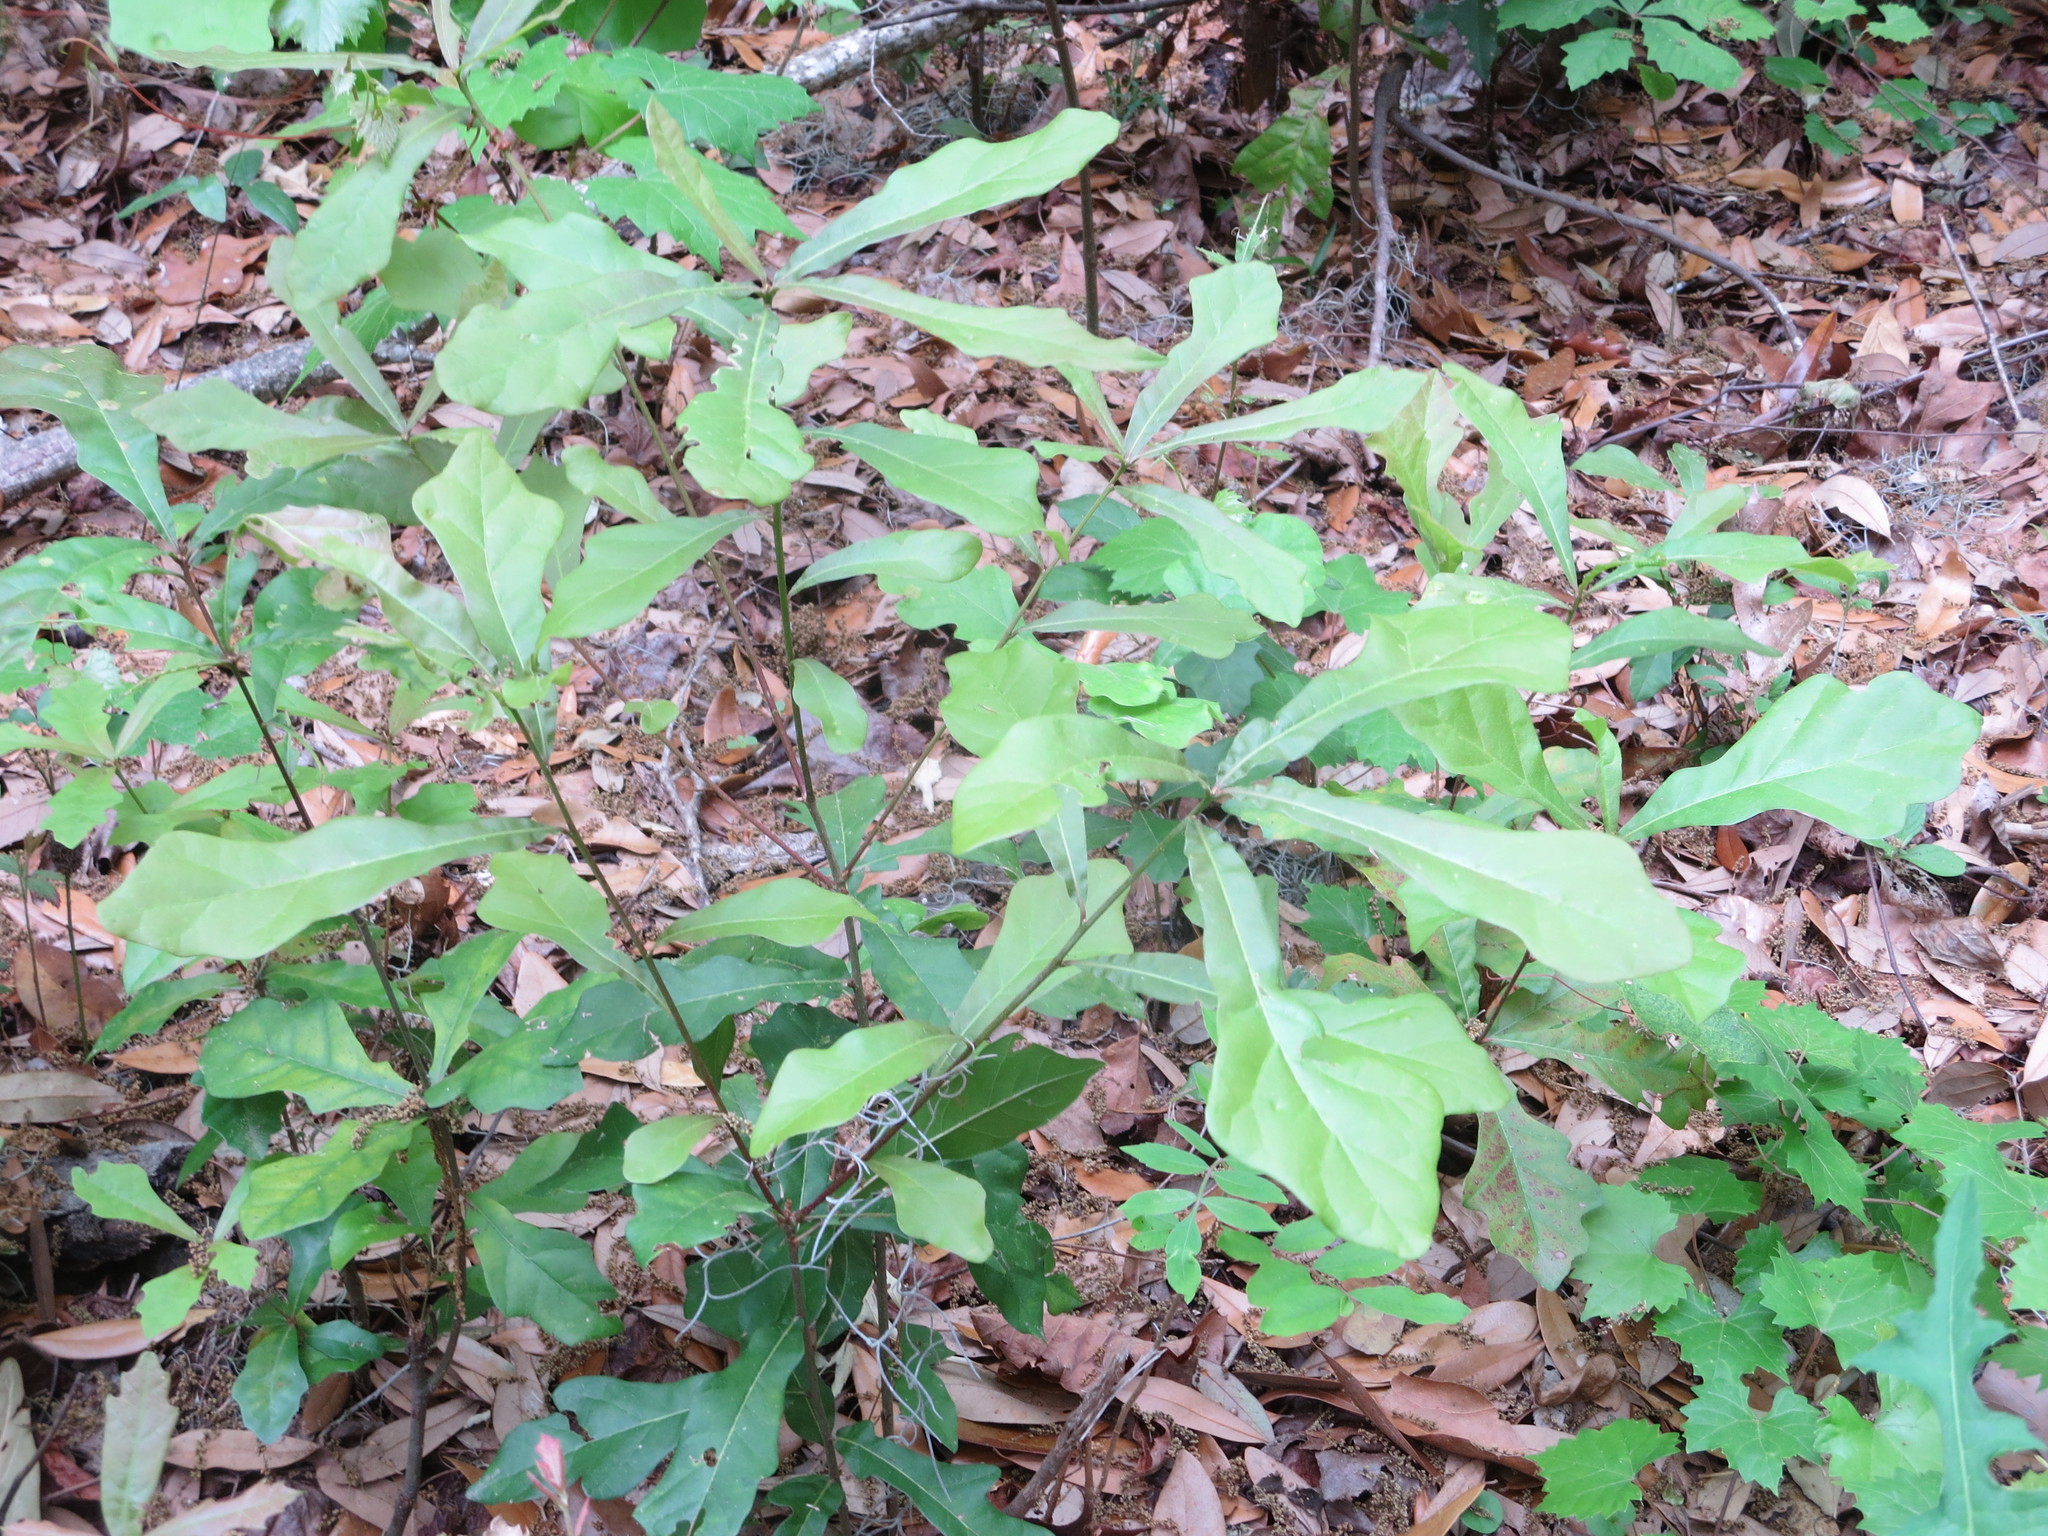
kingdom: Plantae
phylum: Tracheophyta
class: Magnoliopsida
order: Fagales
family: Fagaceae
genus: Quercus
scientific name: Quercus nigra
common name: Water oak
